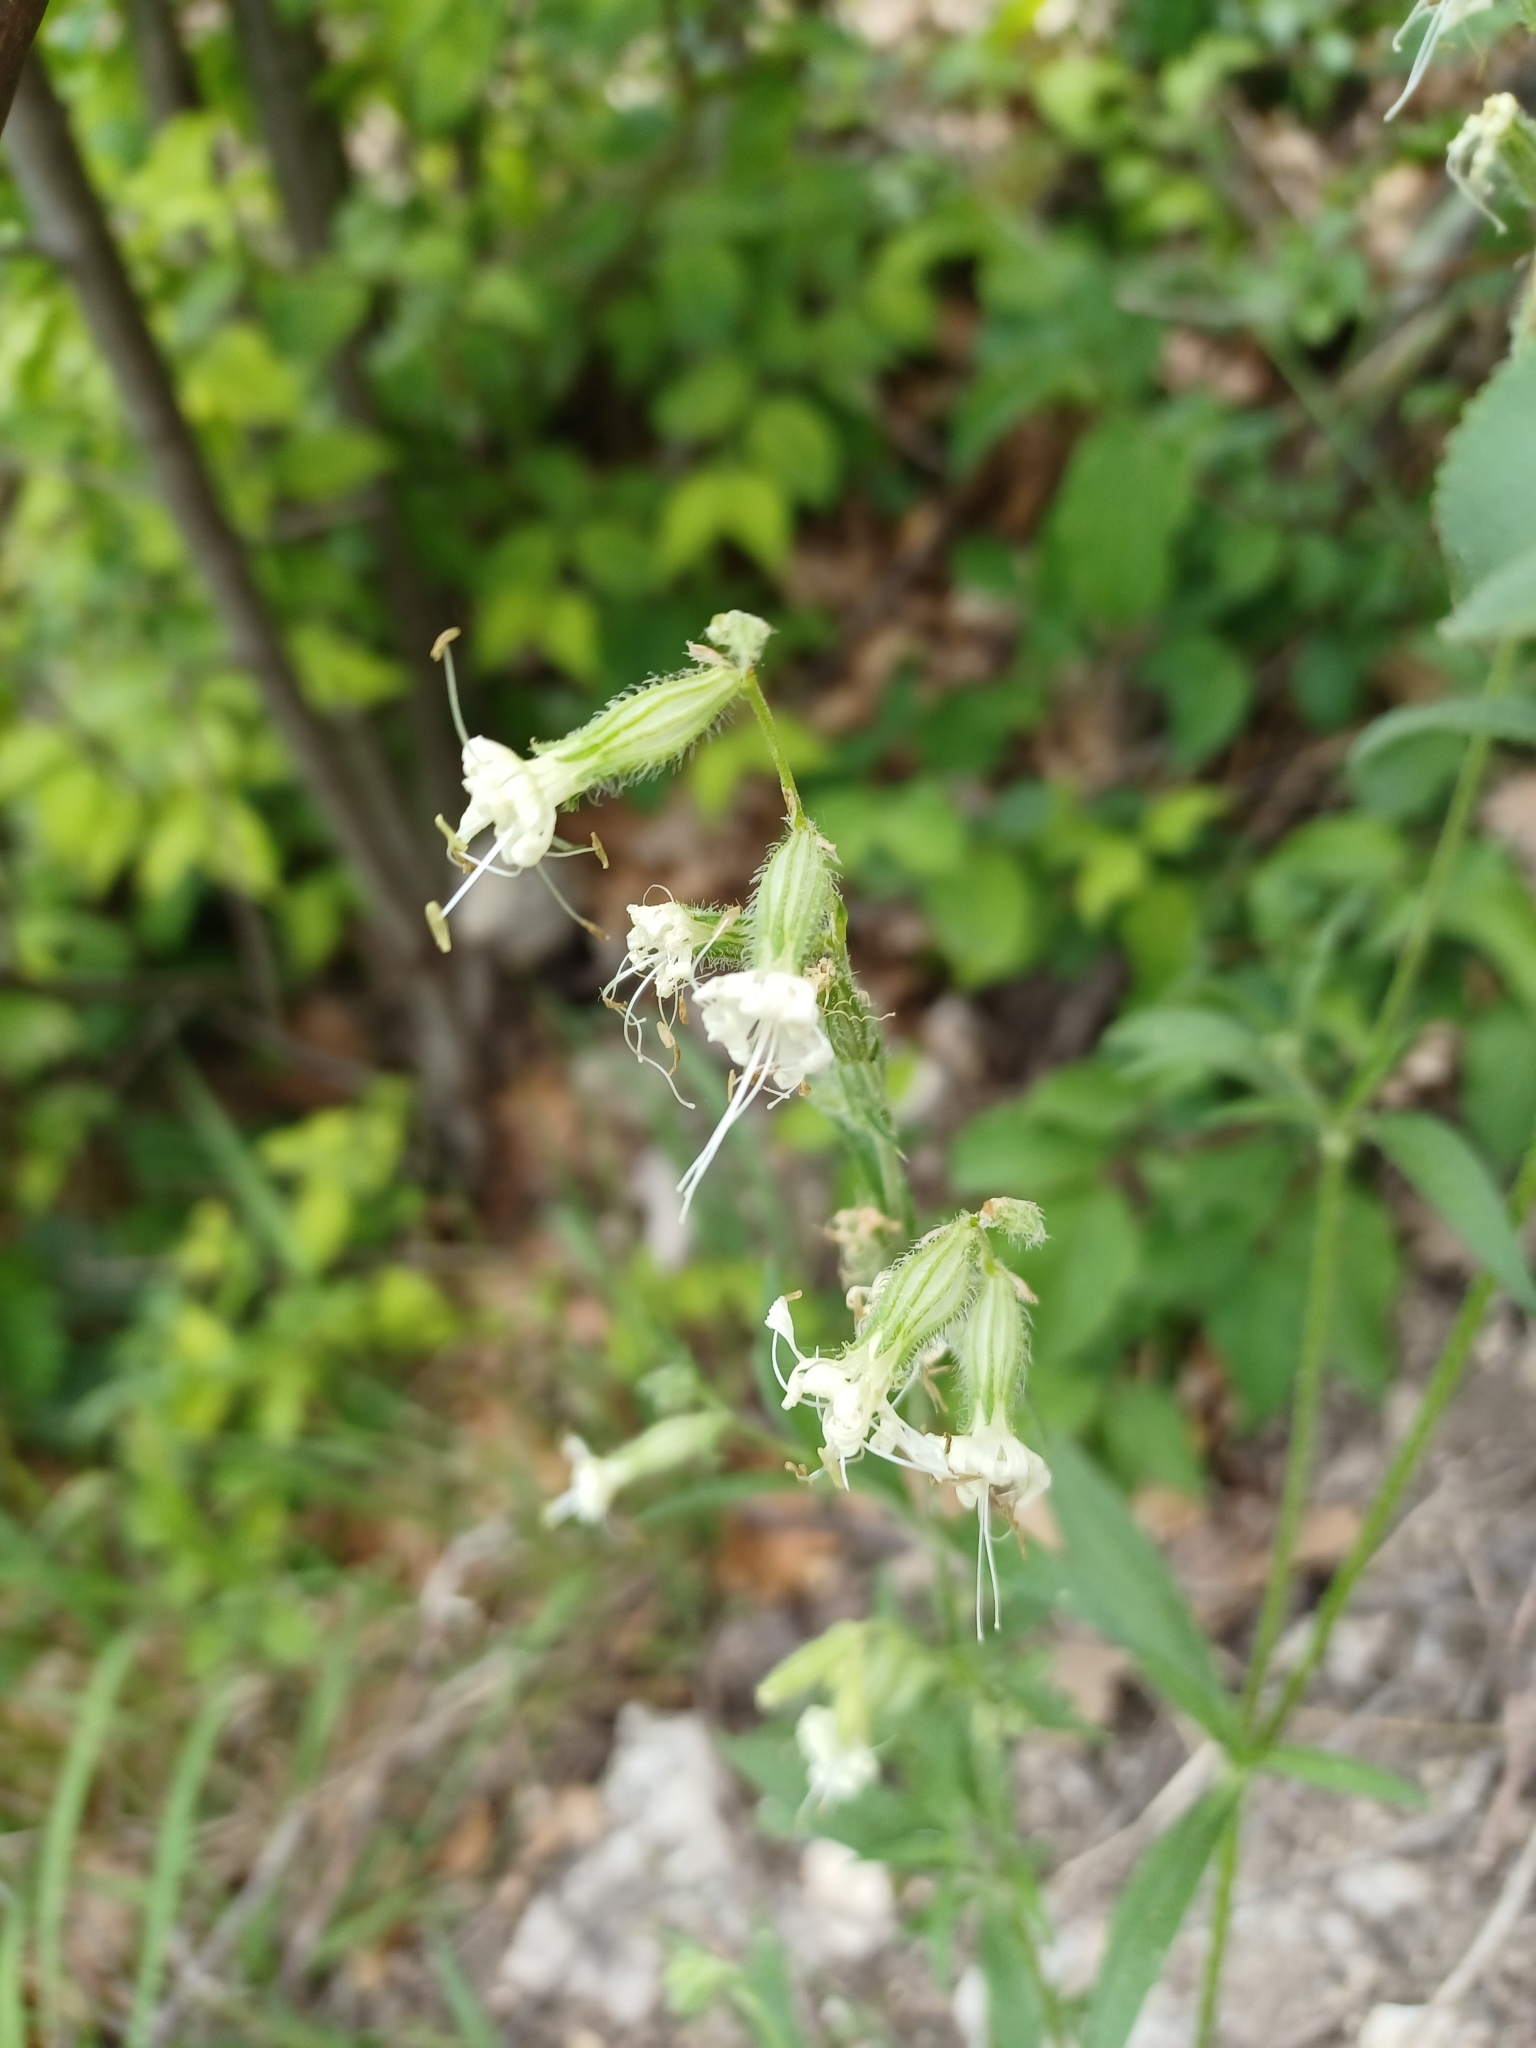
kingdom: Plantae
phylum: Tracheophyta
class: Magnoliopsida
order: Caryophyllales
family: Caryophyllaceae
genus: Silene
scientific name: Silene dichotoma
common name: Forked catchfly
